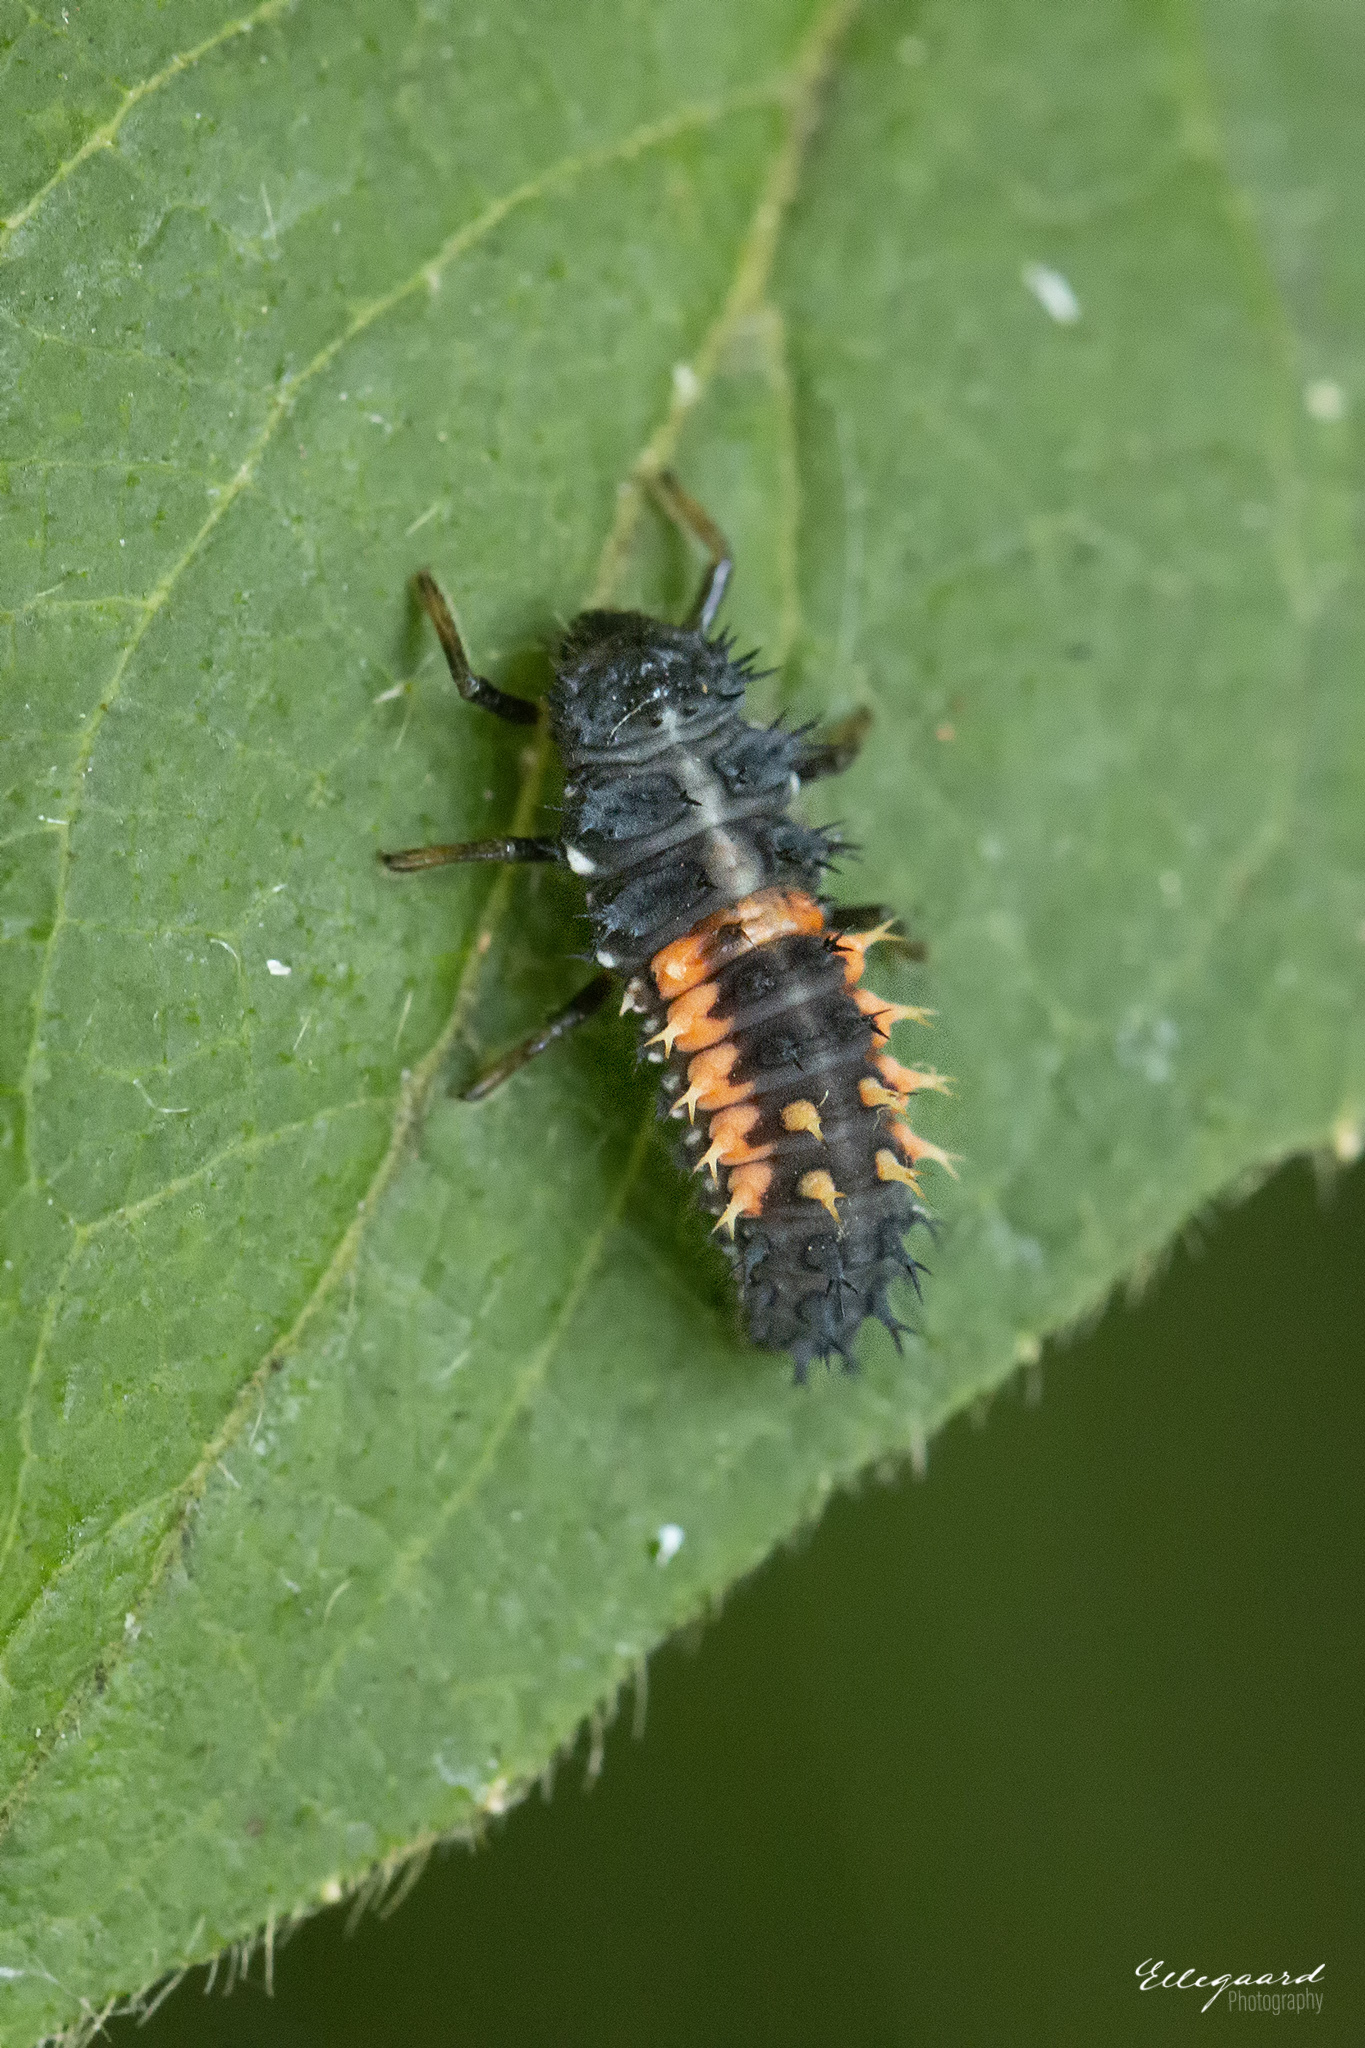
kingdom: Animalia
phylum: Arthropoda
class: Insecta
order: Coleoptera
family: Coccinellidae
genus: Harmonia
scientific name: Harmonia axyridis
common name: Harlequin ladybird
